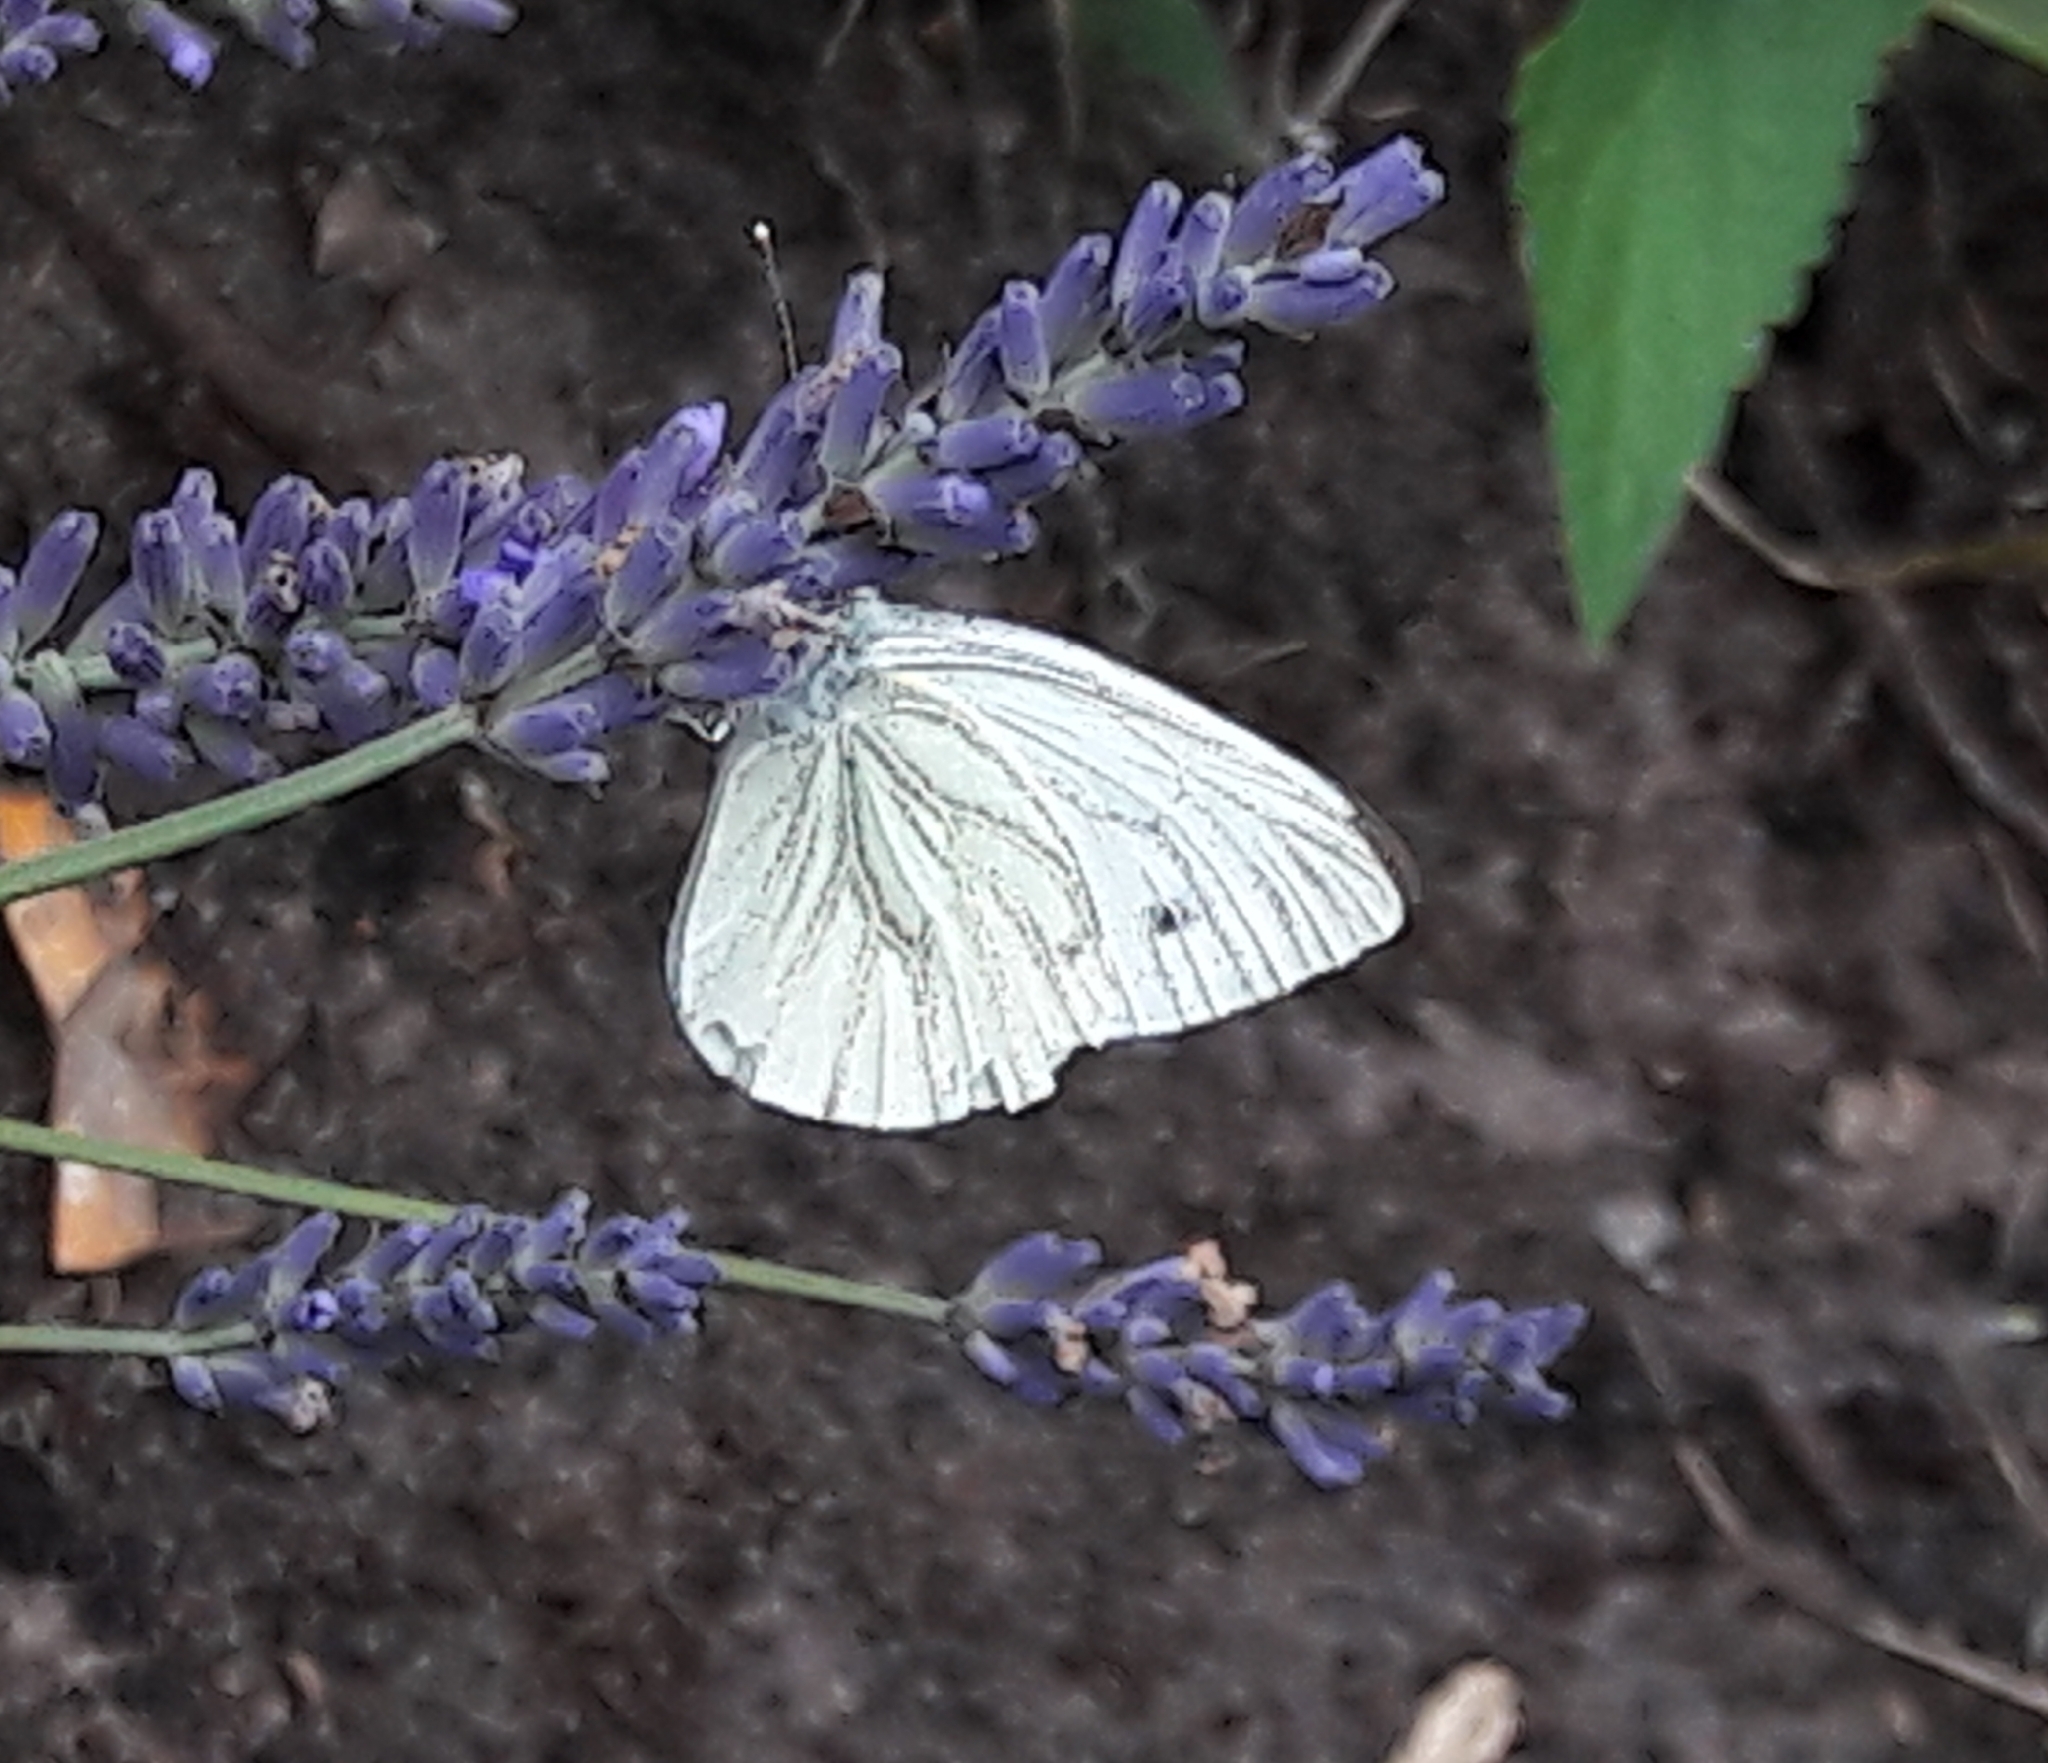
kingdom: Animalia
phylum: Arthropoda
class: Insecta
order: Lepidoptera
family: Pieridae
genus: Pieris
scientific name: Pieris napi
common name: Green-veined white
